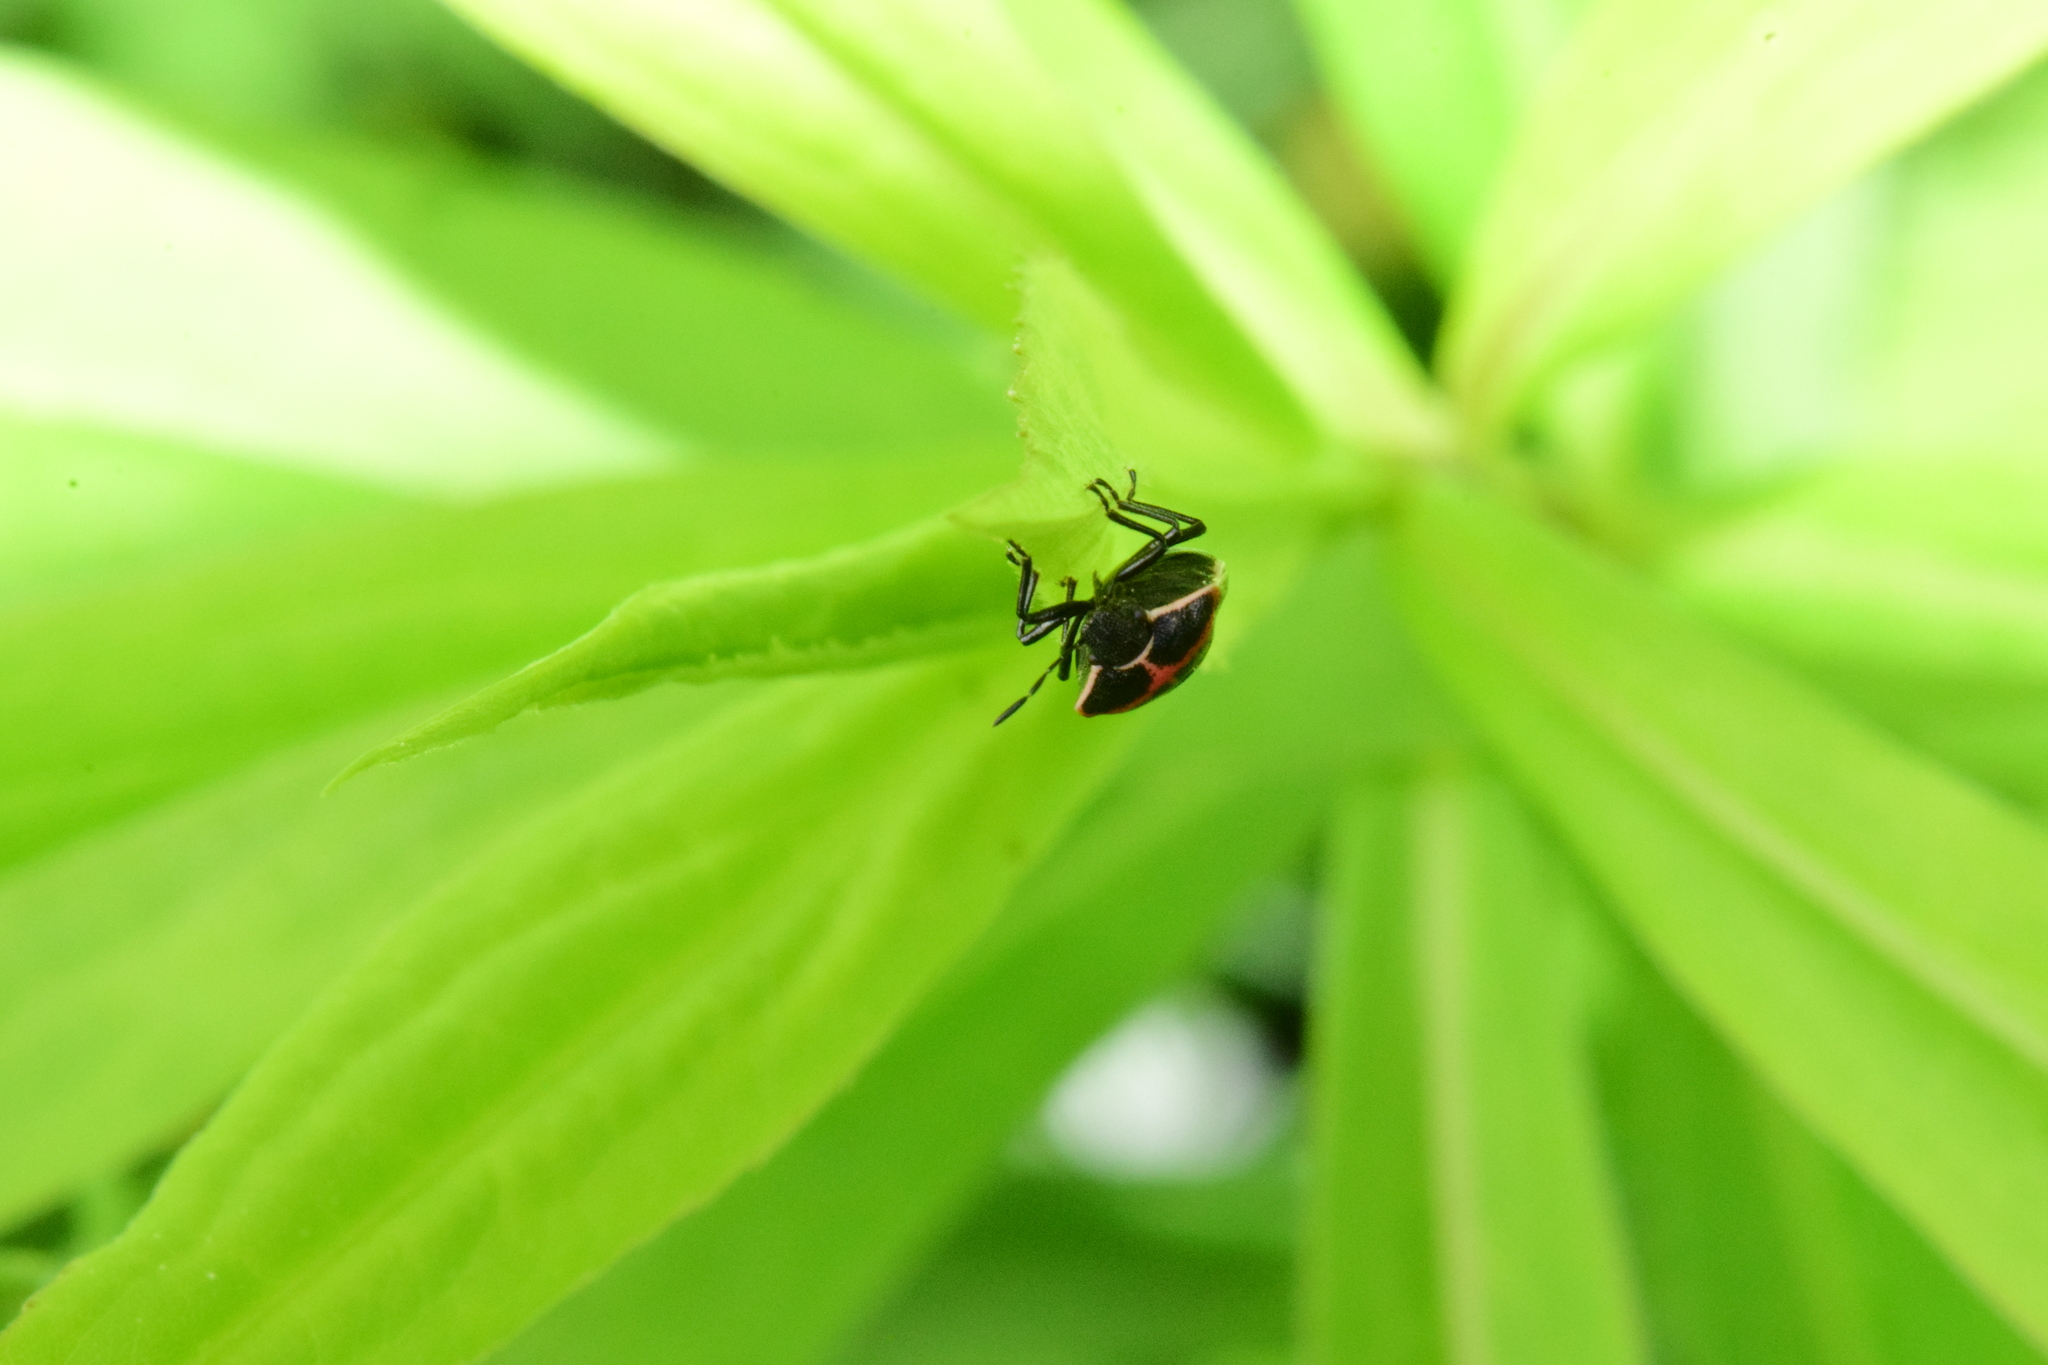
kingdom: Animalia
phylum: Arthropoda
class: Insecta
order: Hemiptera
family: Pentatomidae
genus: Cosmopepla
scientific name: Cosmopepla lintneriana
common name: Twice-stabbed stink bug
